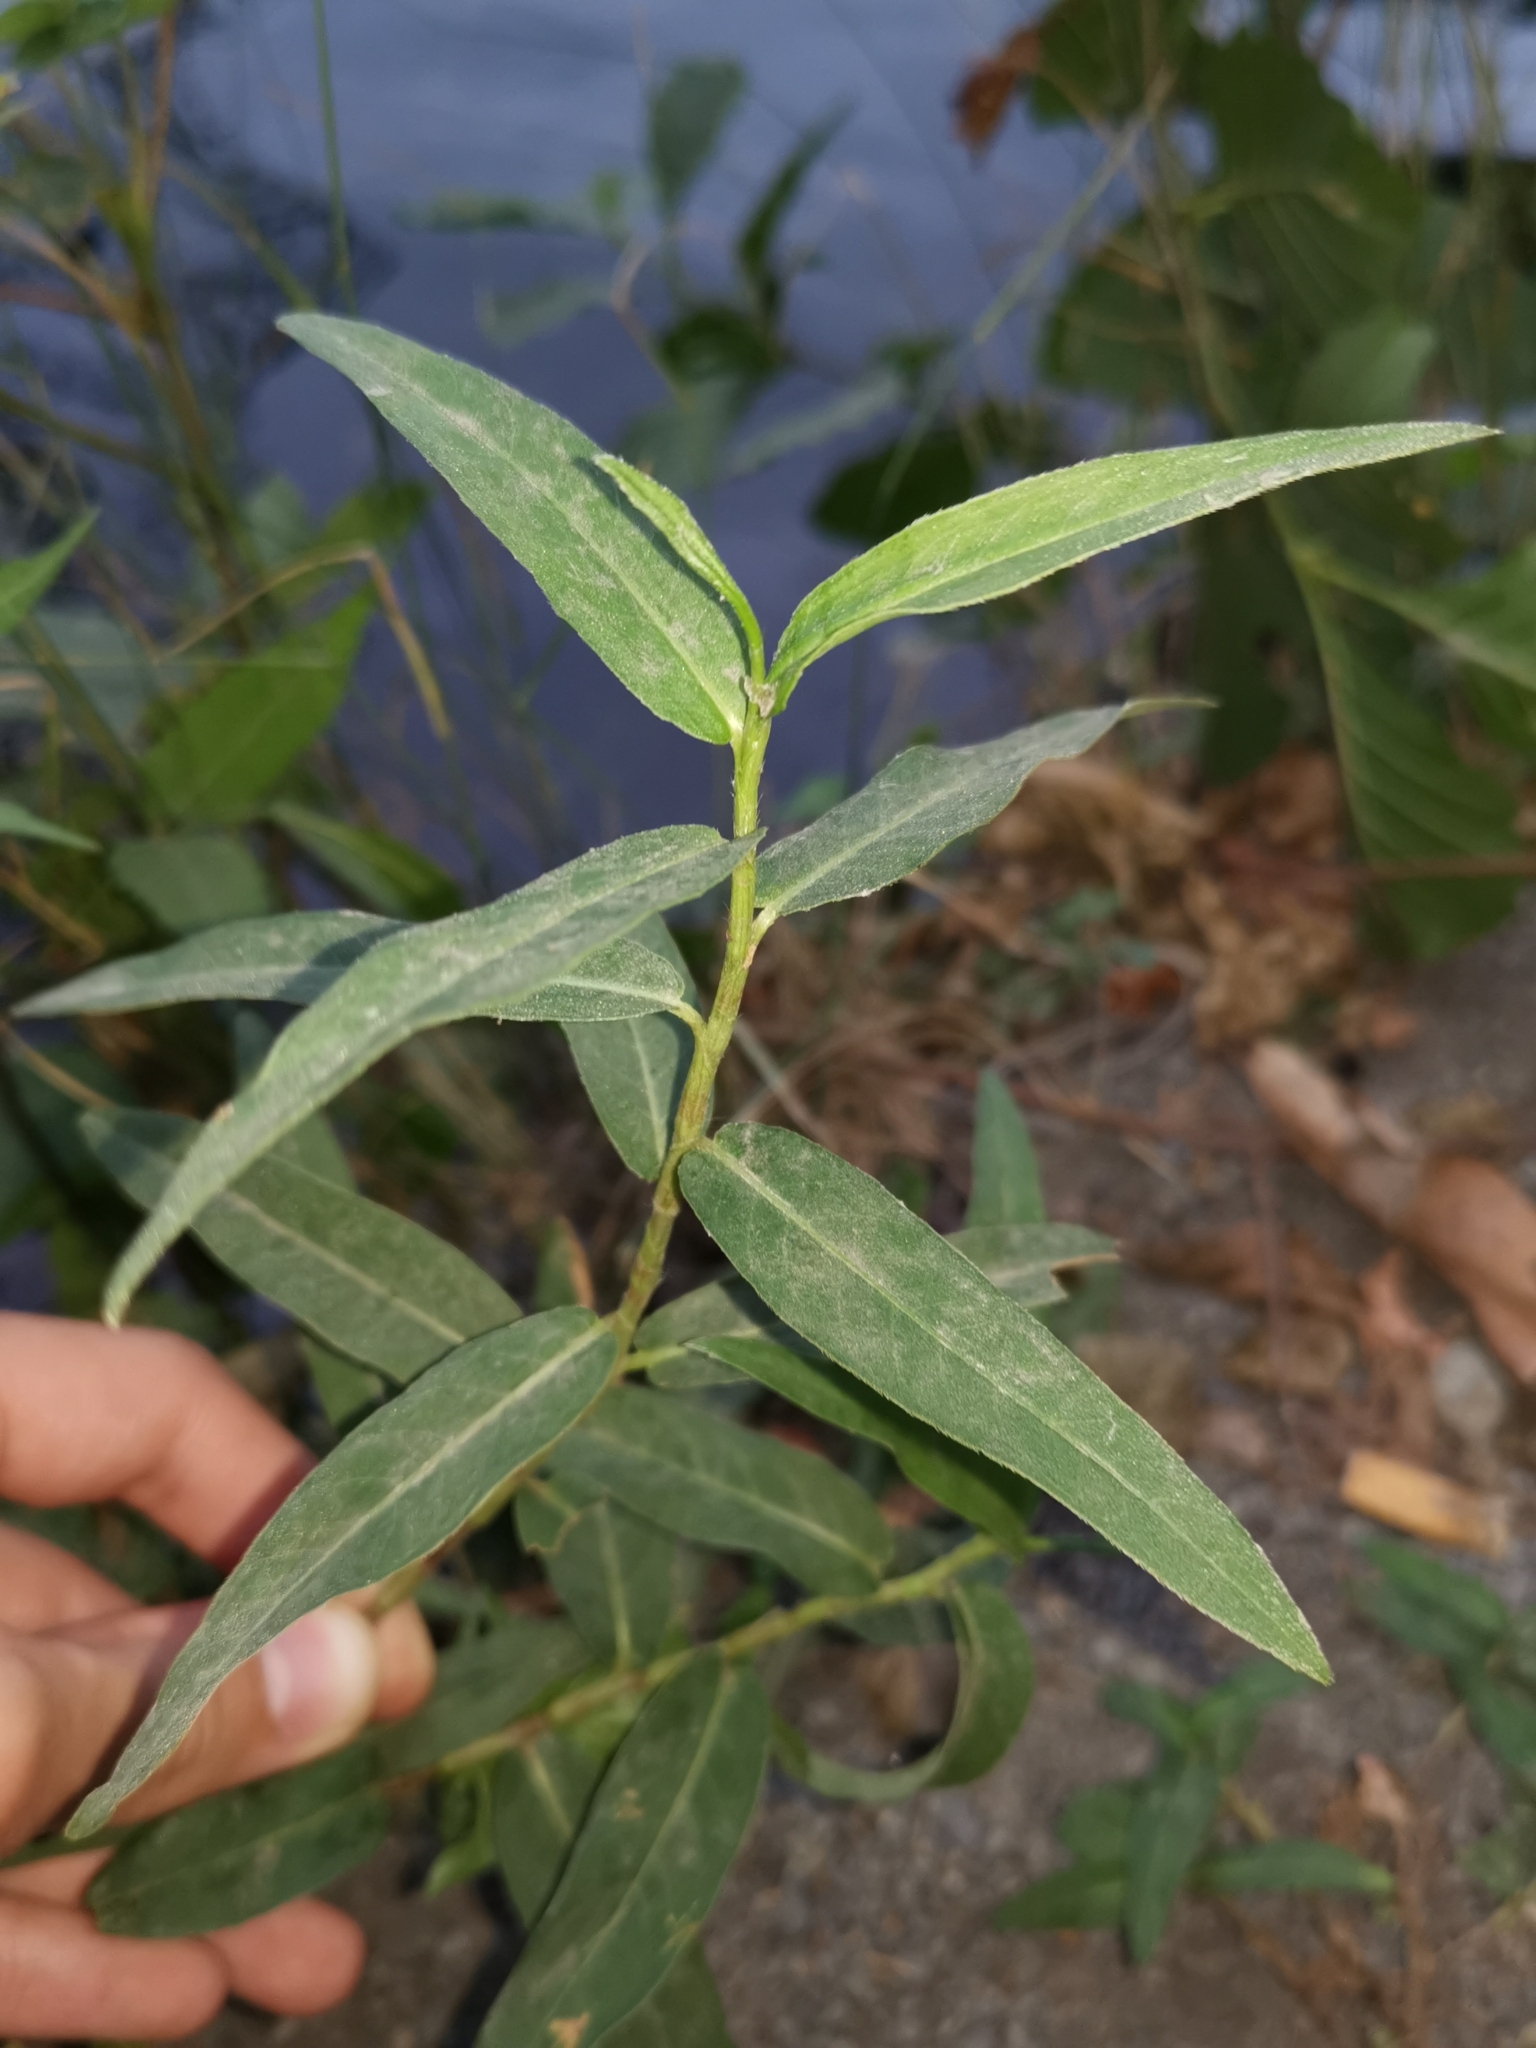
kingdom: Plantae
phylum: Tracheophyta
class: Magnoliopsida
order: Caryophyllales
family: Polygonaceae
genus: Persicaria
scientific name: Persicaria amphibia
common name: Amphibious bistort
